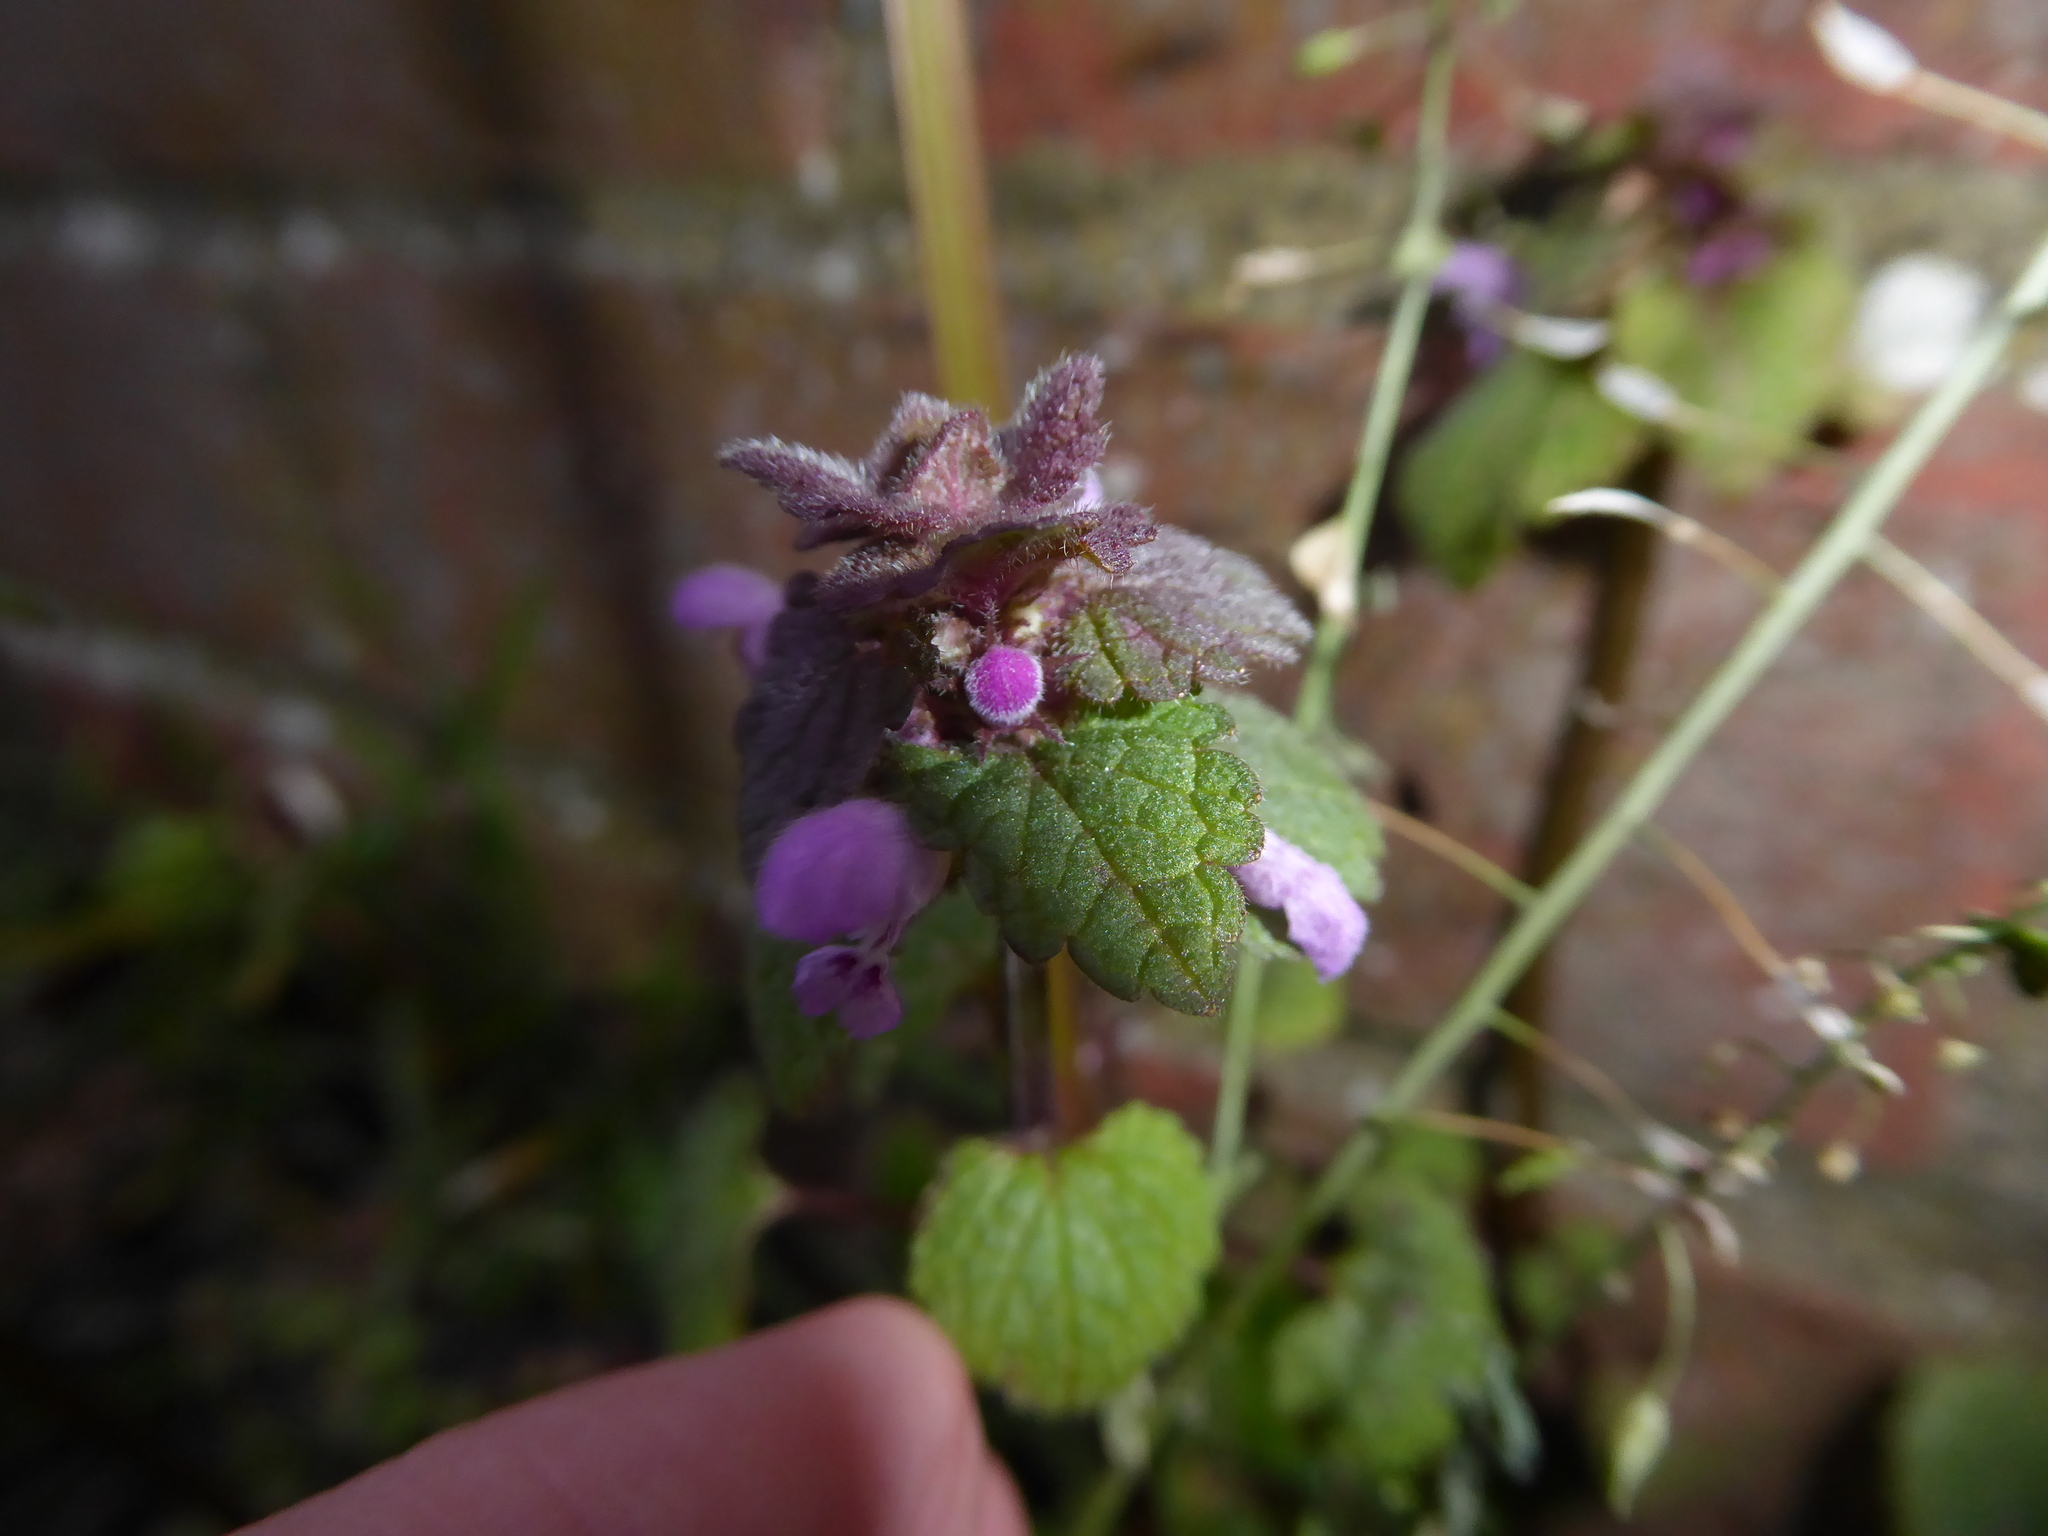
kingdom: Plantae
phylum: Tracheophyta
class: Magnoliopsida
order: Lamiales
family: Lamiaceae
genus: Lamium
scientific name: Lamium purpureum
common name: Red dead-nettle
